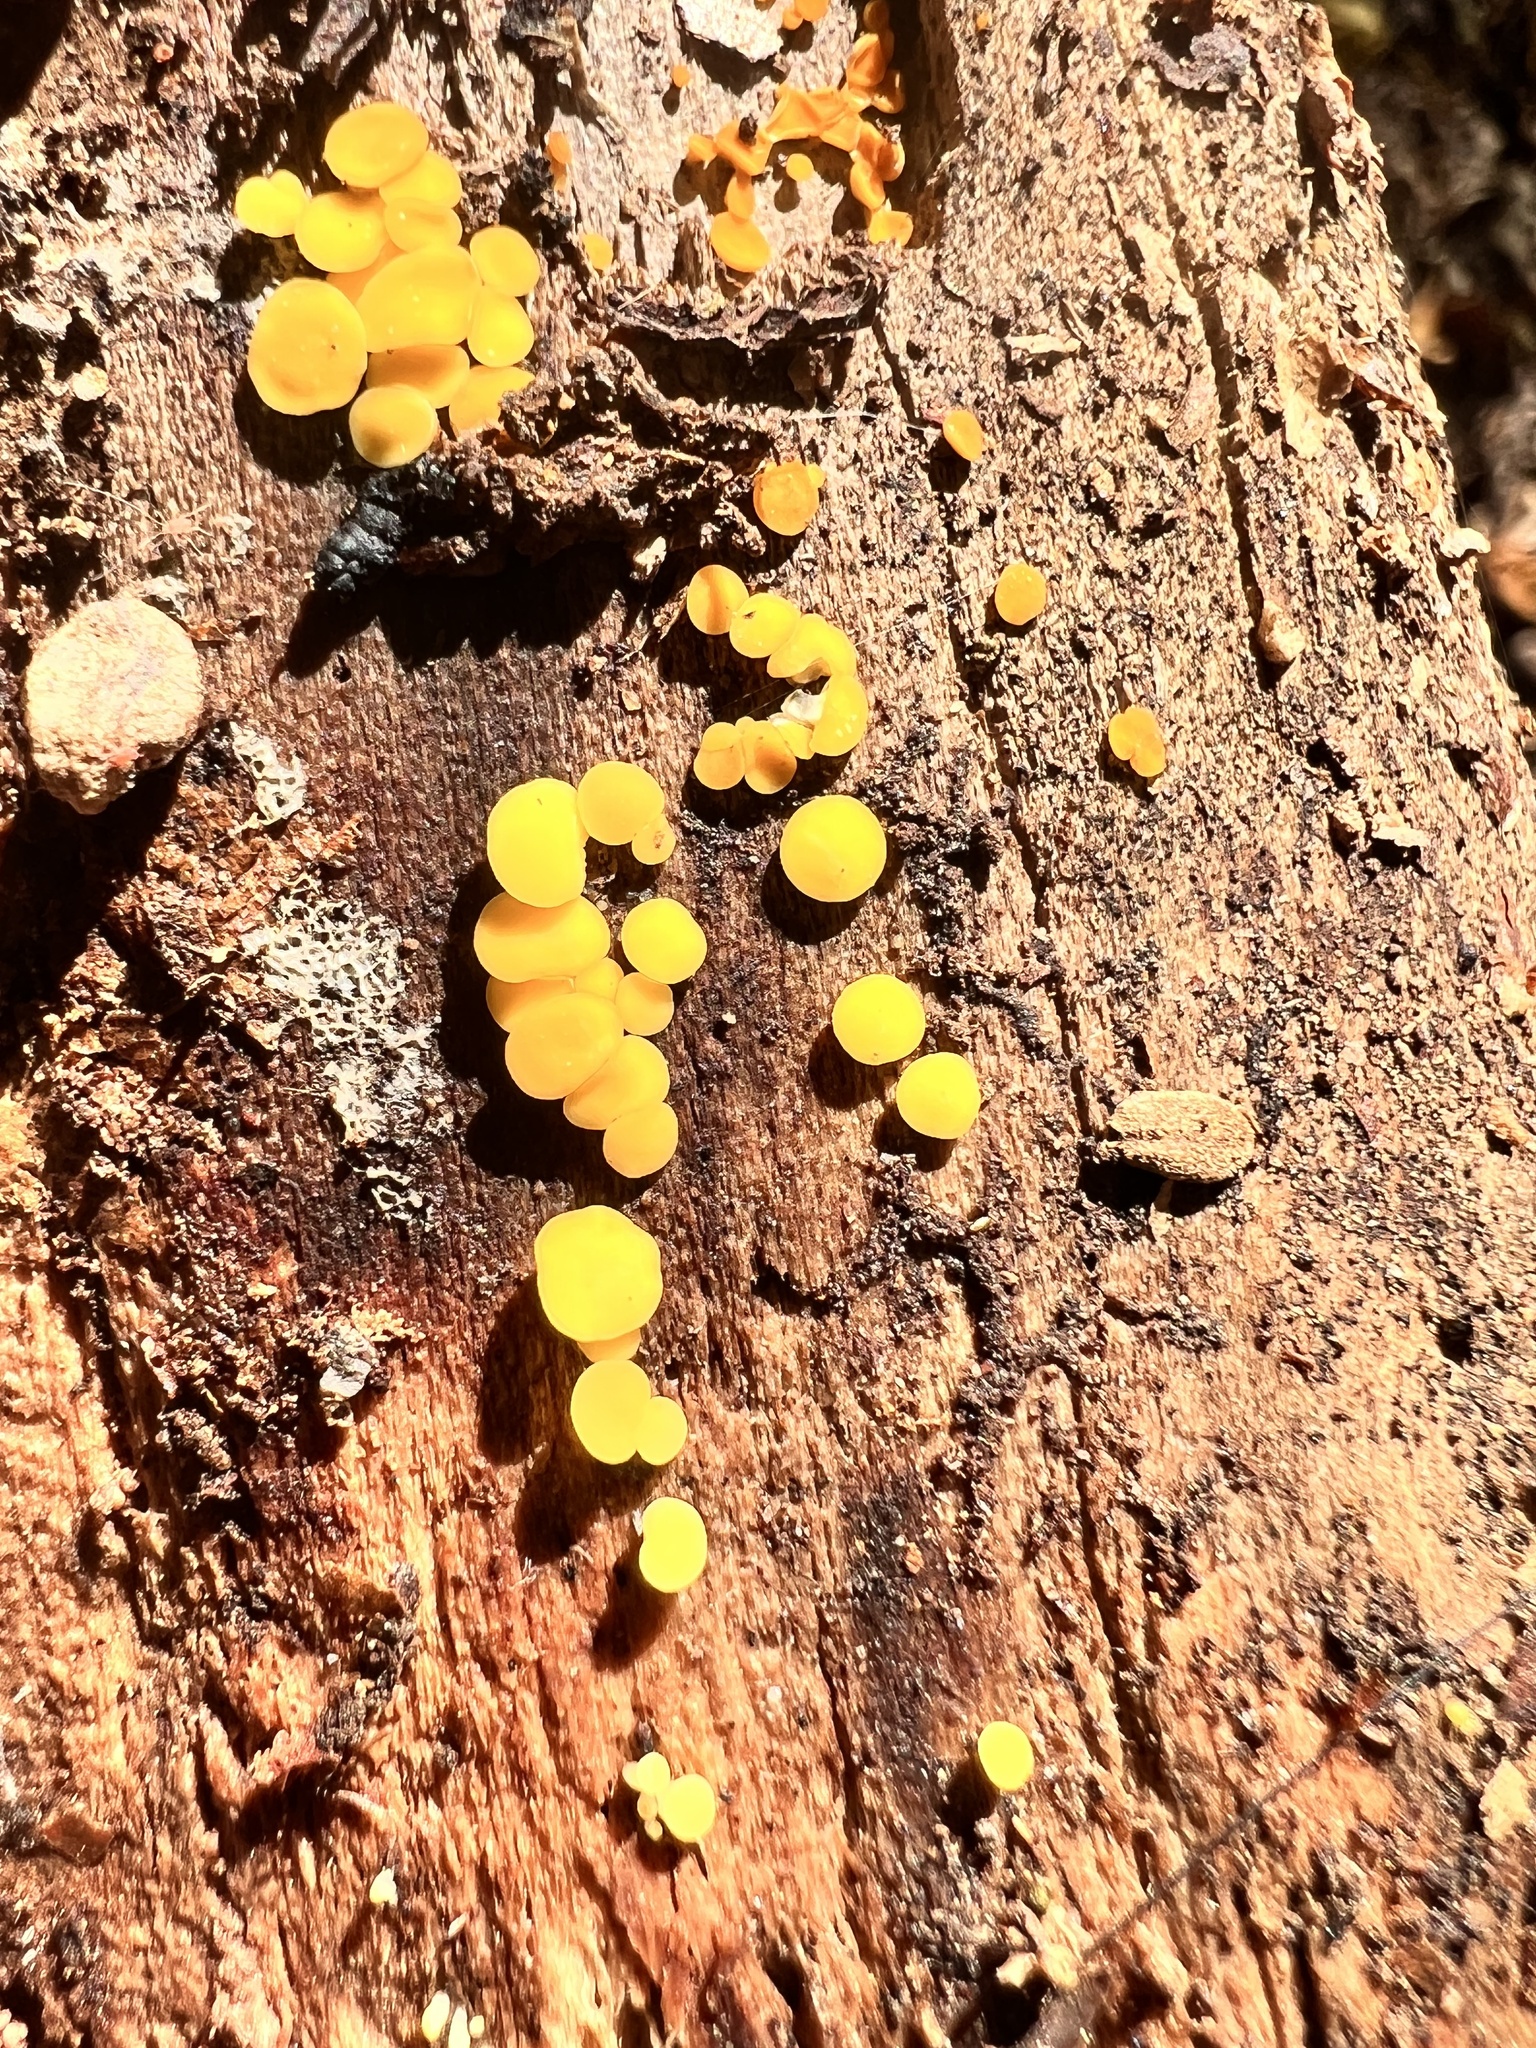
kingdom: Fungi
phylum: Ascomycota
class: Leotiomycetes
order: Helotiales
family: Pezizellaceae
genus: Calycina
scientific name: Calycina citrina
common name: Yellow fairy cups
